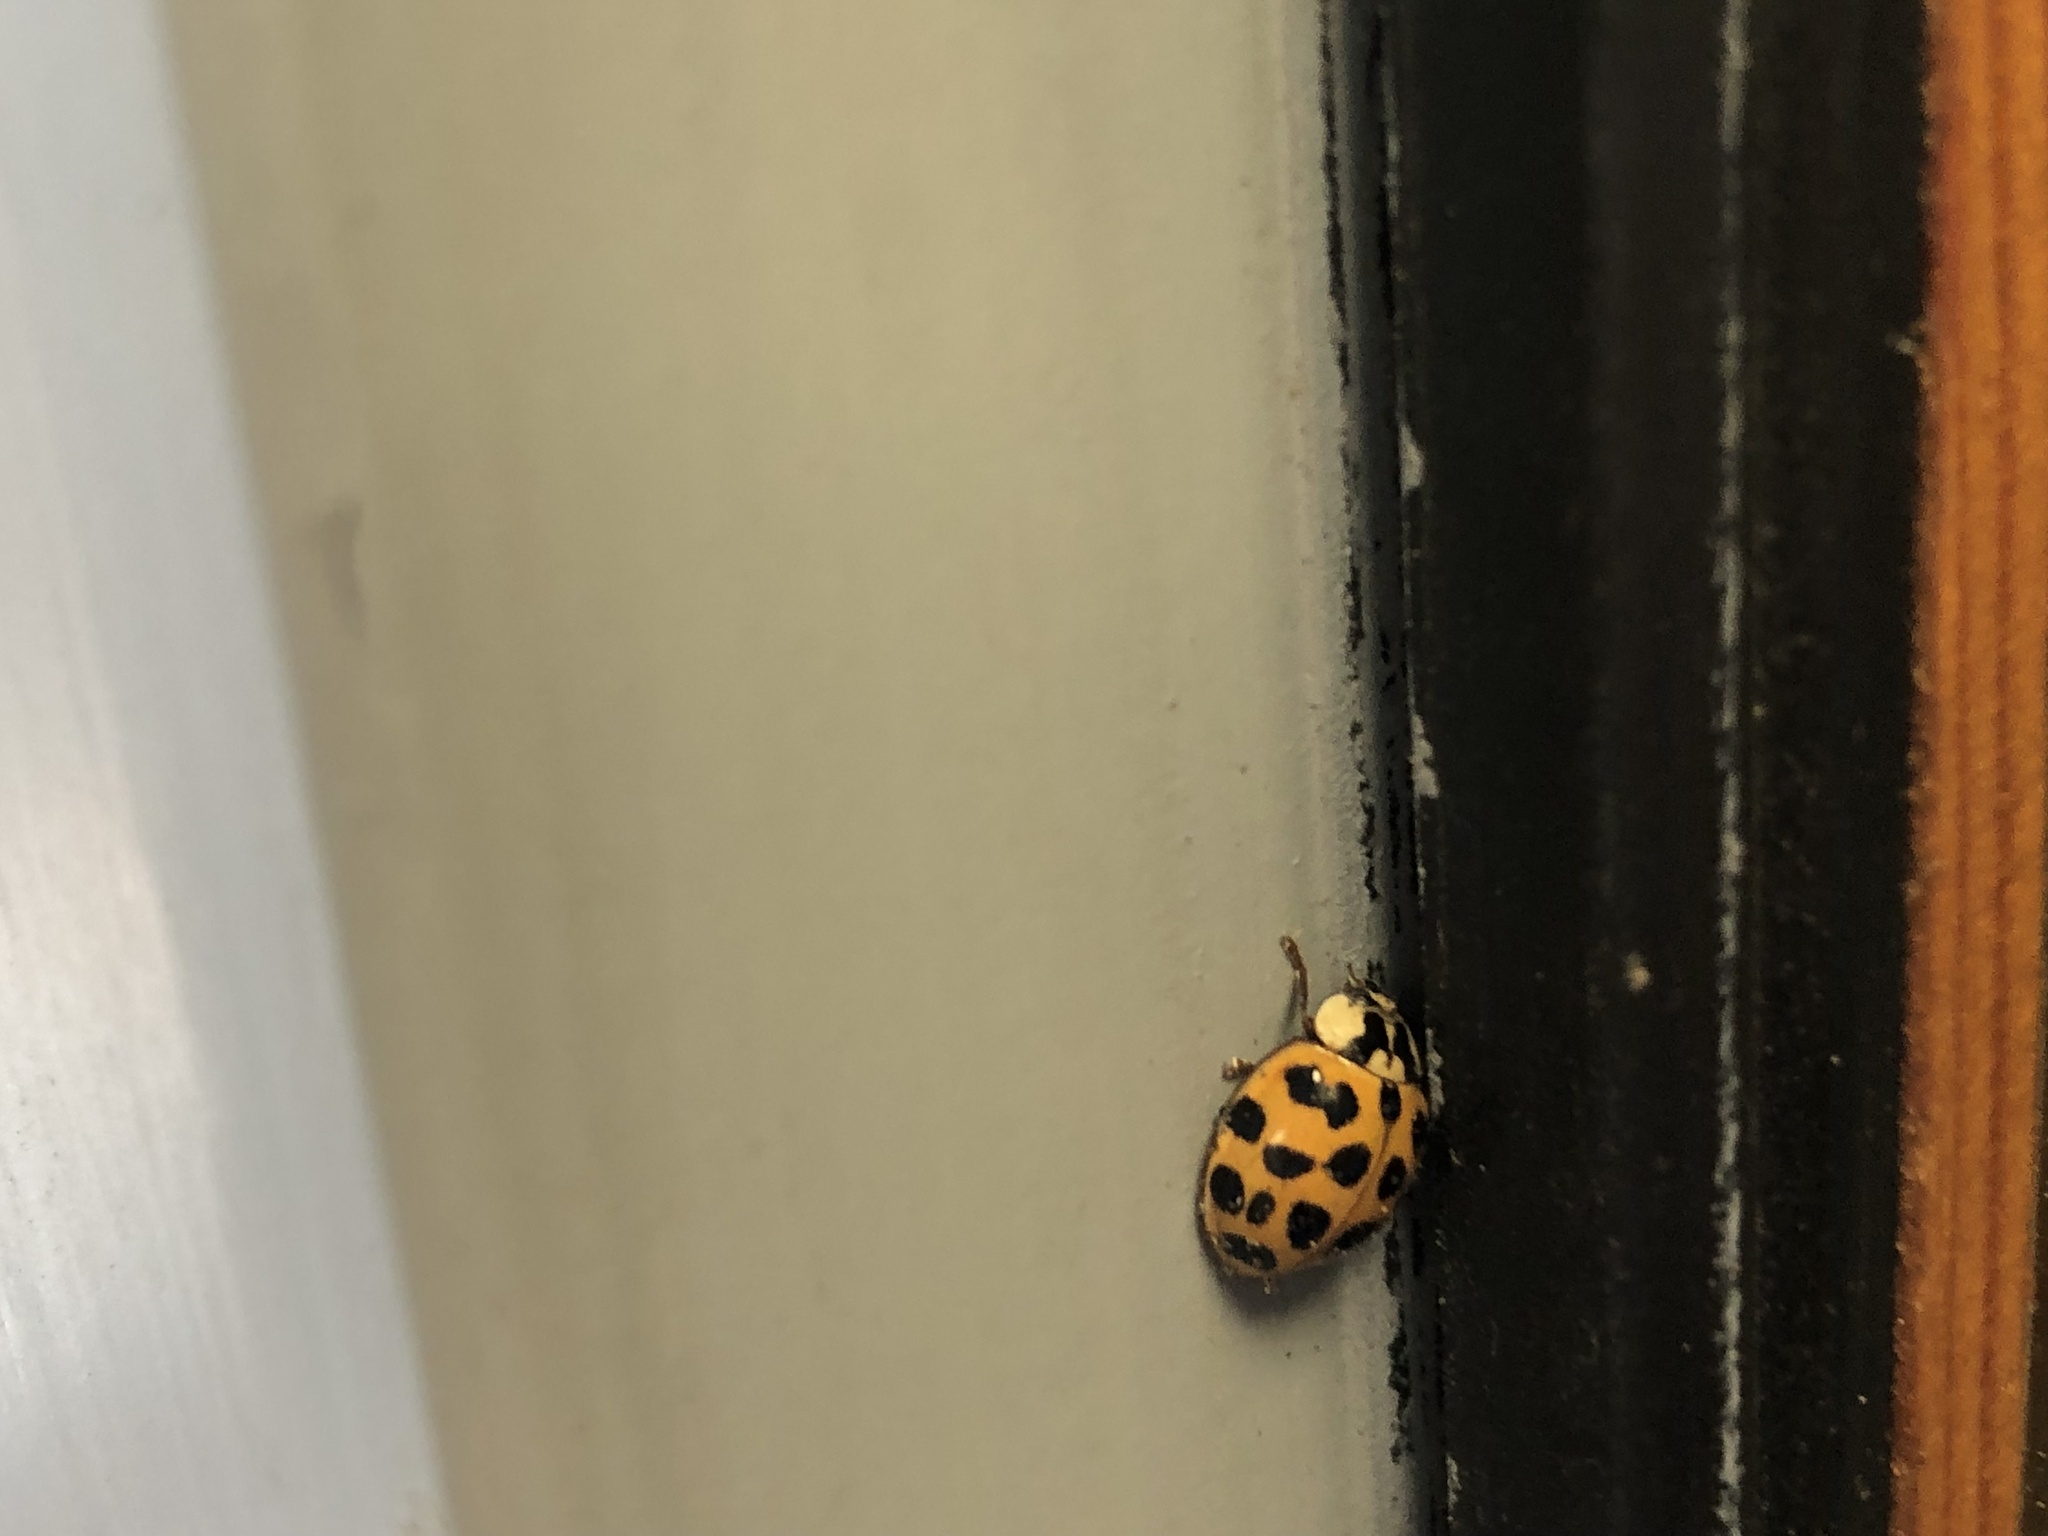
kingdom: Animalia
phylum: Arthropoda
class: Insecta
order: Coleoptera
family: Coccinellidae
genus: Harmonia
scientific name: Harmonia axyridis
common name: Harlequin ladybird
